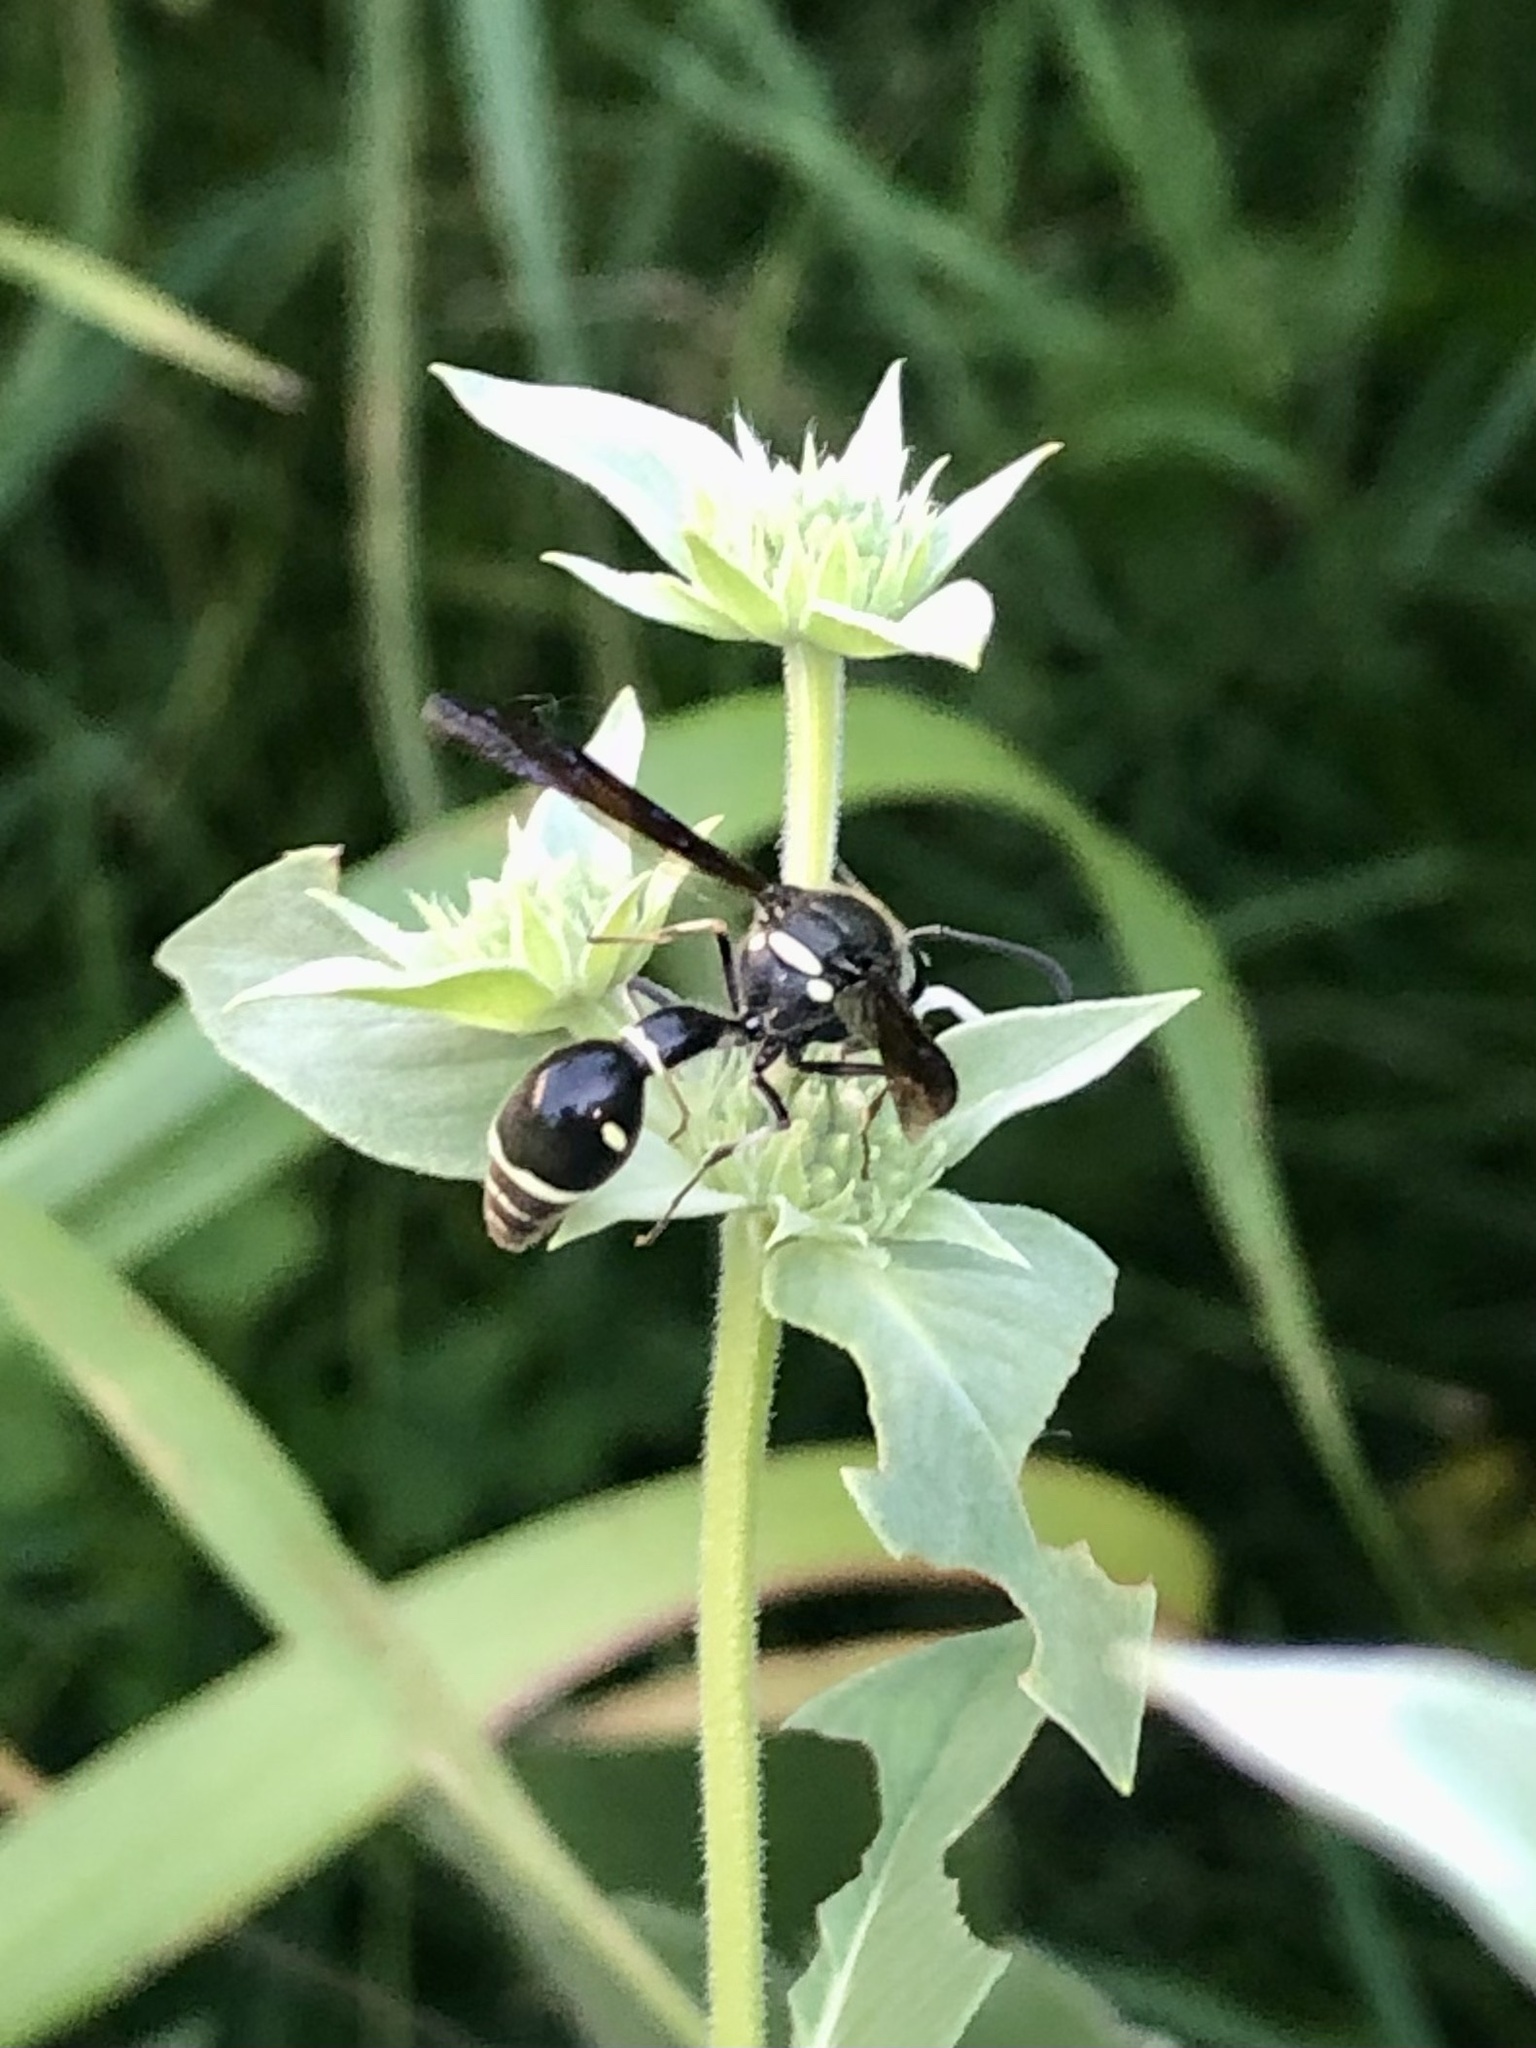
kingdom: Animalia
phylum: Arthropoda
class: Insecta
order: Hymenoptera
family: Vespidae
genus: Eumenes
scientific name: Eumenes fraternus
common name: Fraternal potter wasp
